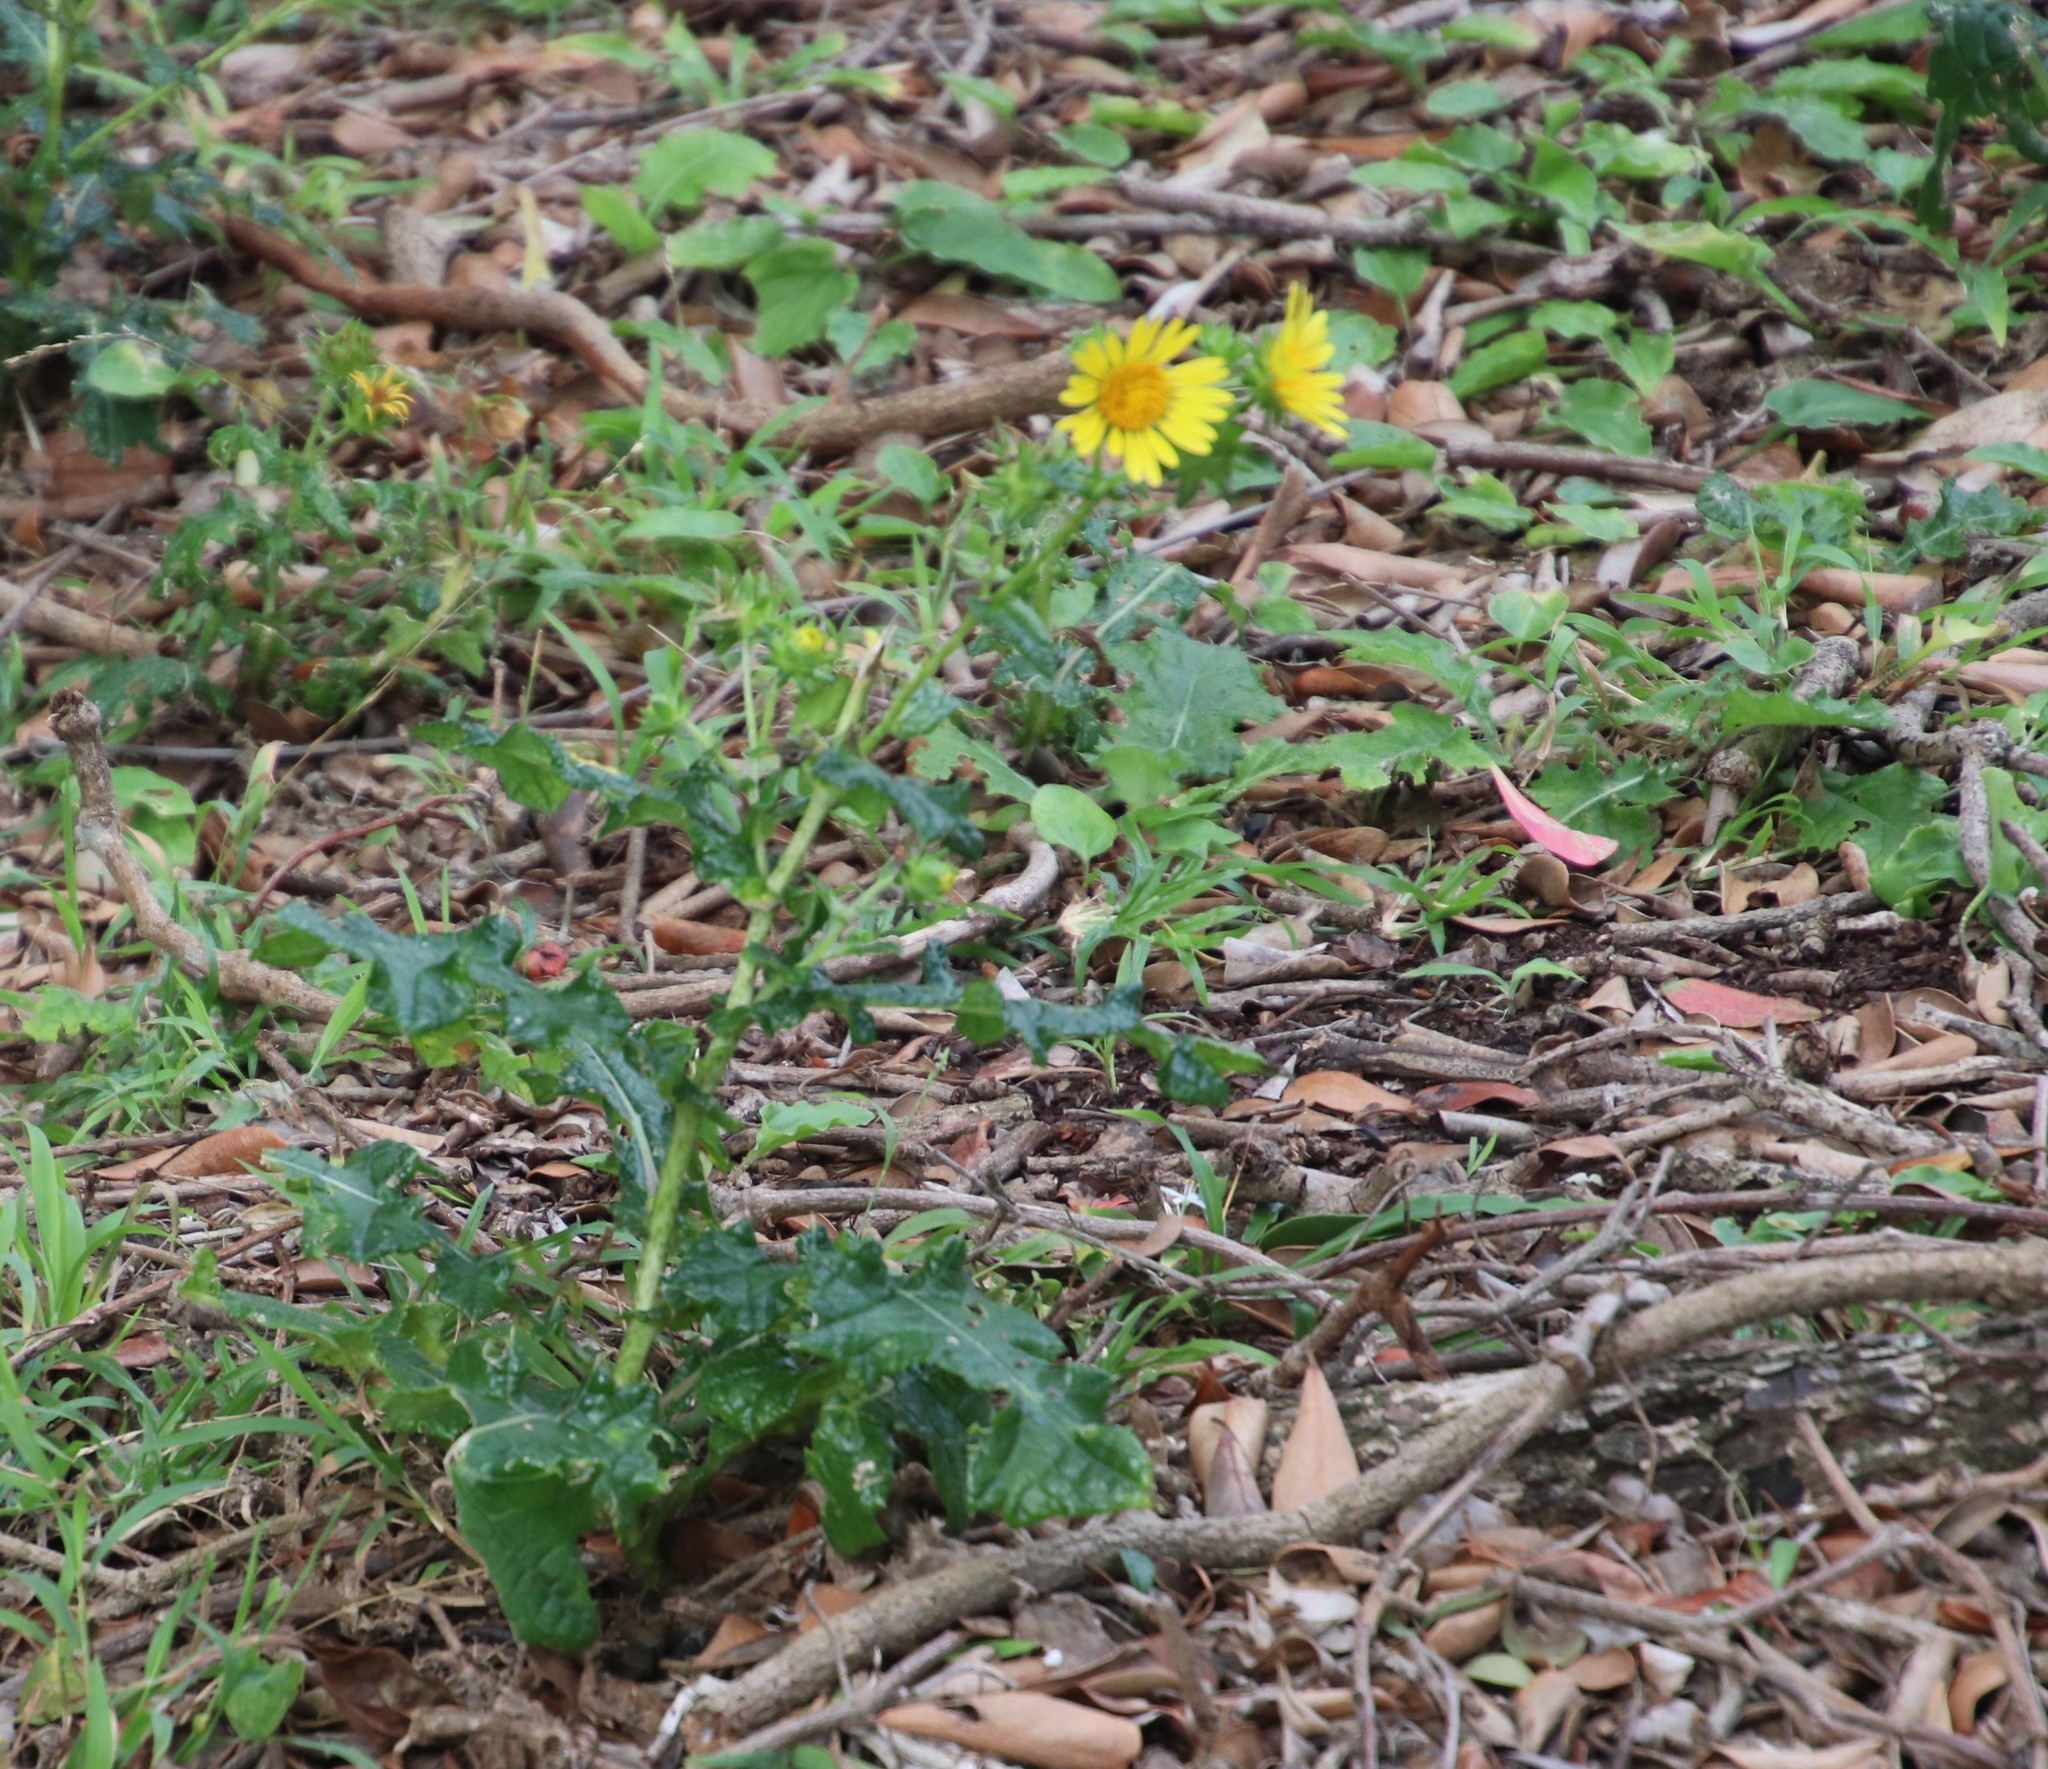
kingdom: Plantae
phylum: Tracheophyta
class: Magnoliopsida
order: Asterales
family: Asteraceae
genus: Berkheya
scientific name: Berkheya erysithales
